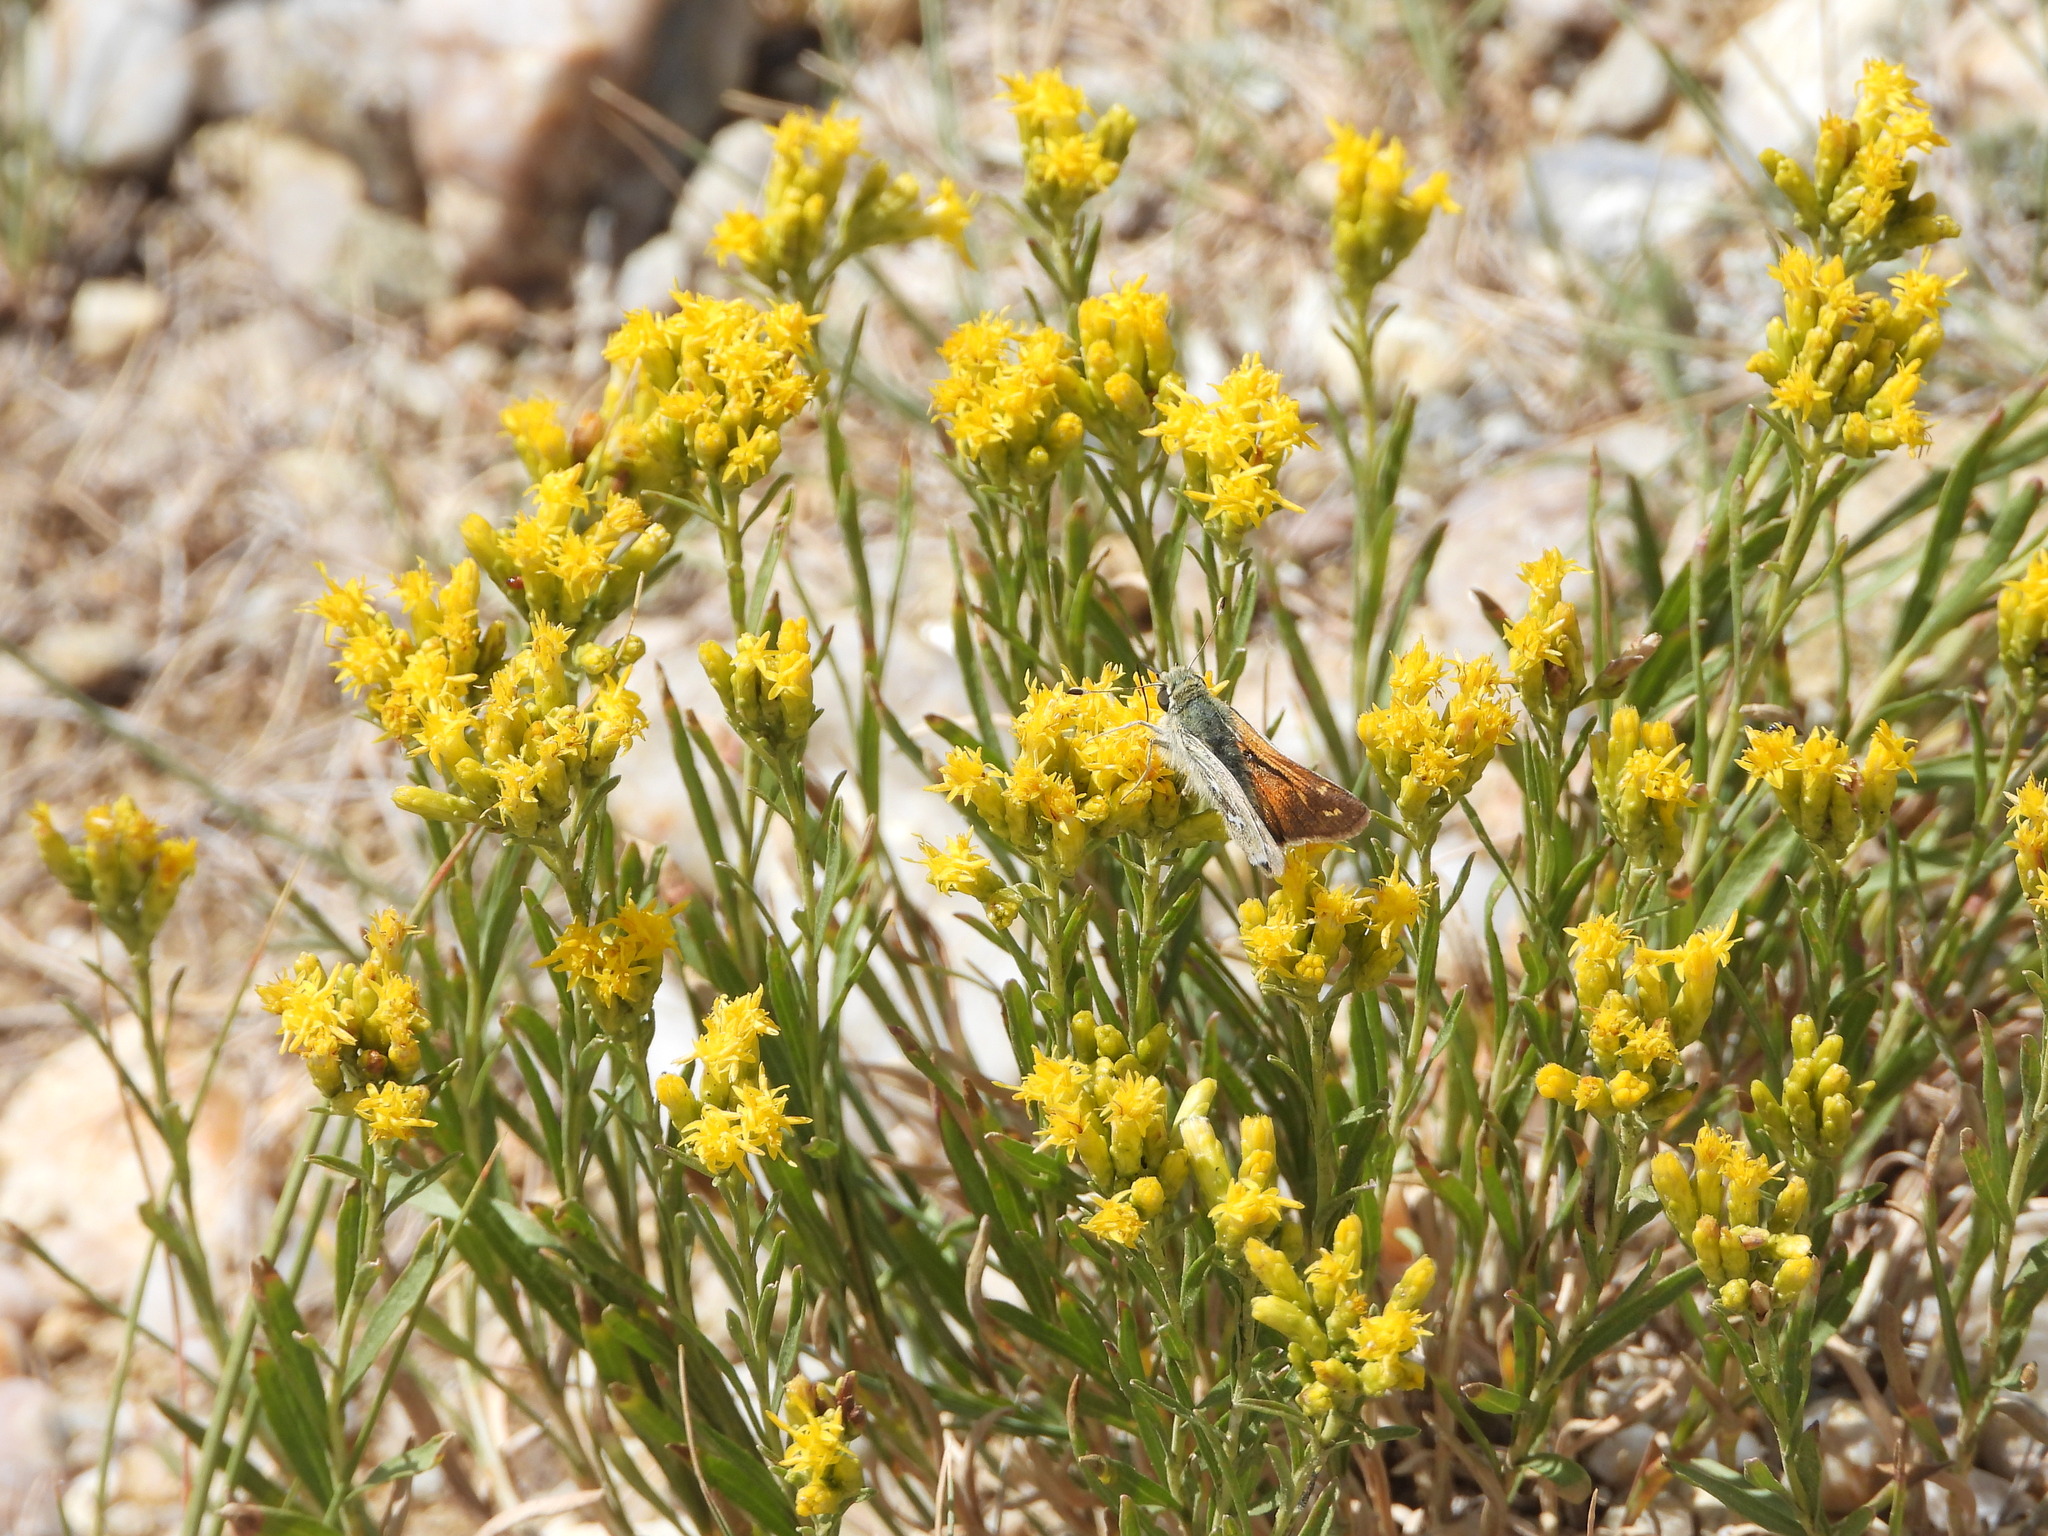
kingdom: Animalia
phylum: Arthropoda
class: Insecta
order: Lepidoptera
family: Hesperiidae
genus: Hesperia
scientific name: Hesperia comma
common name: Common branded skipper
